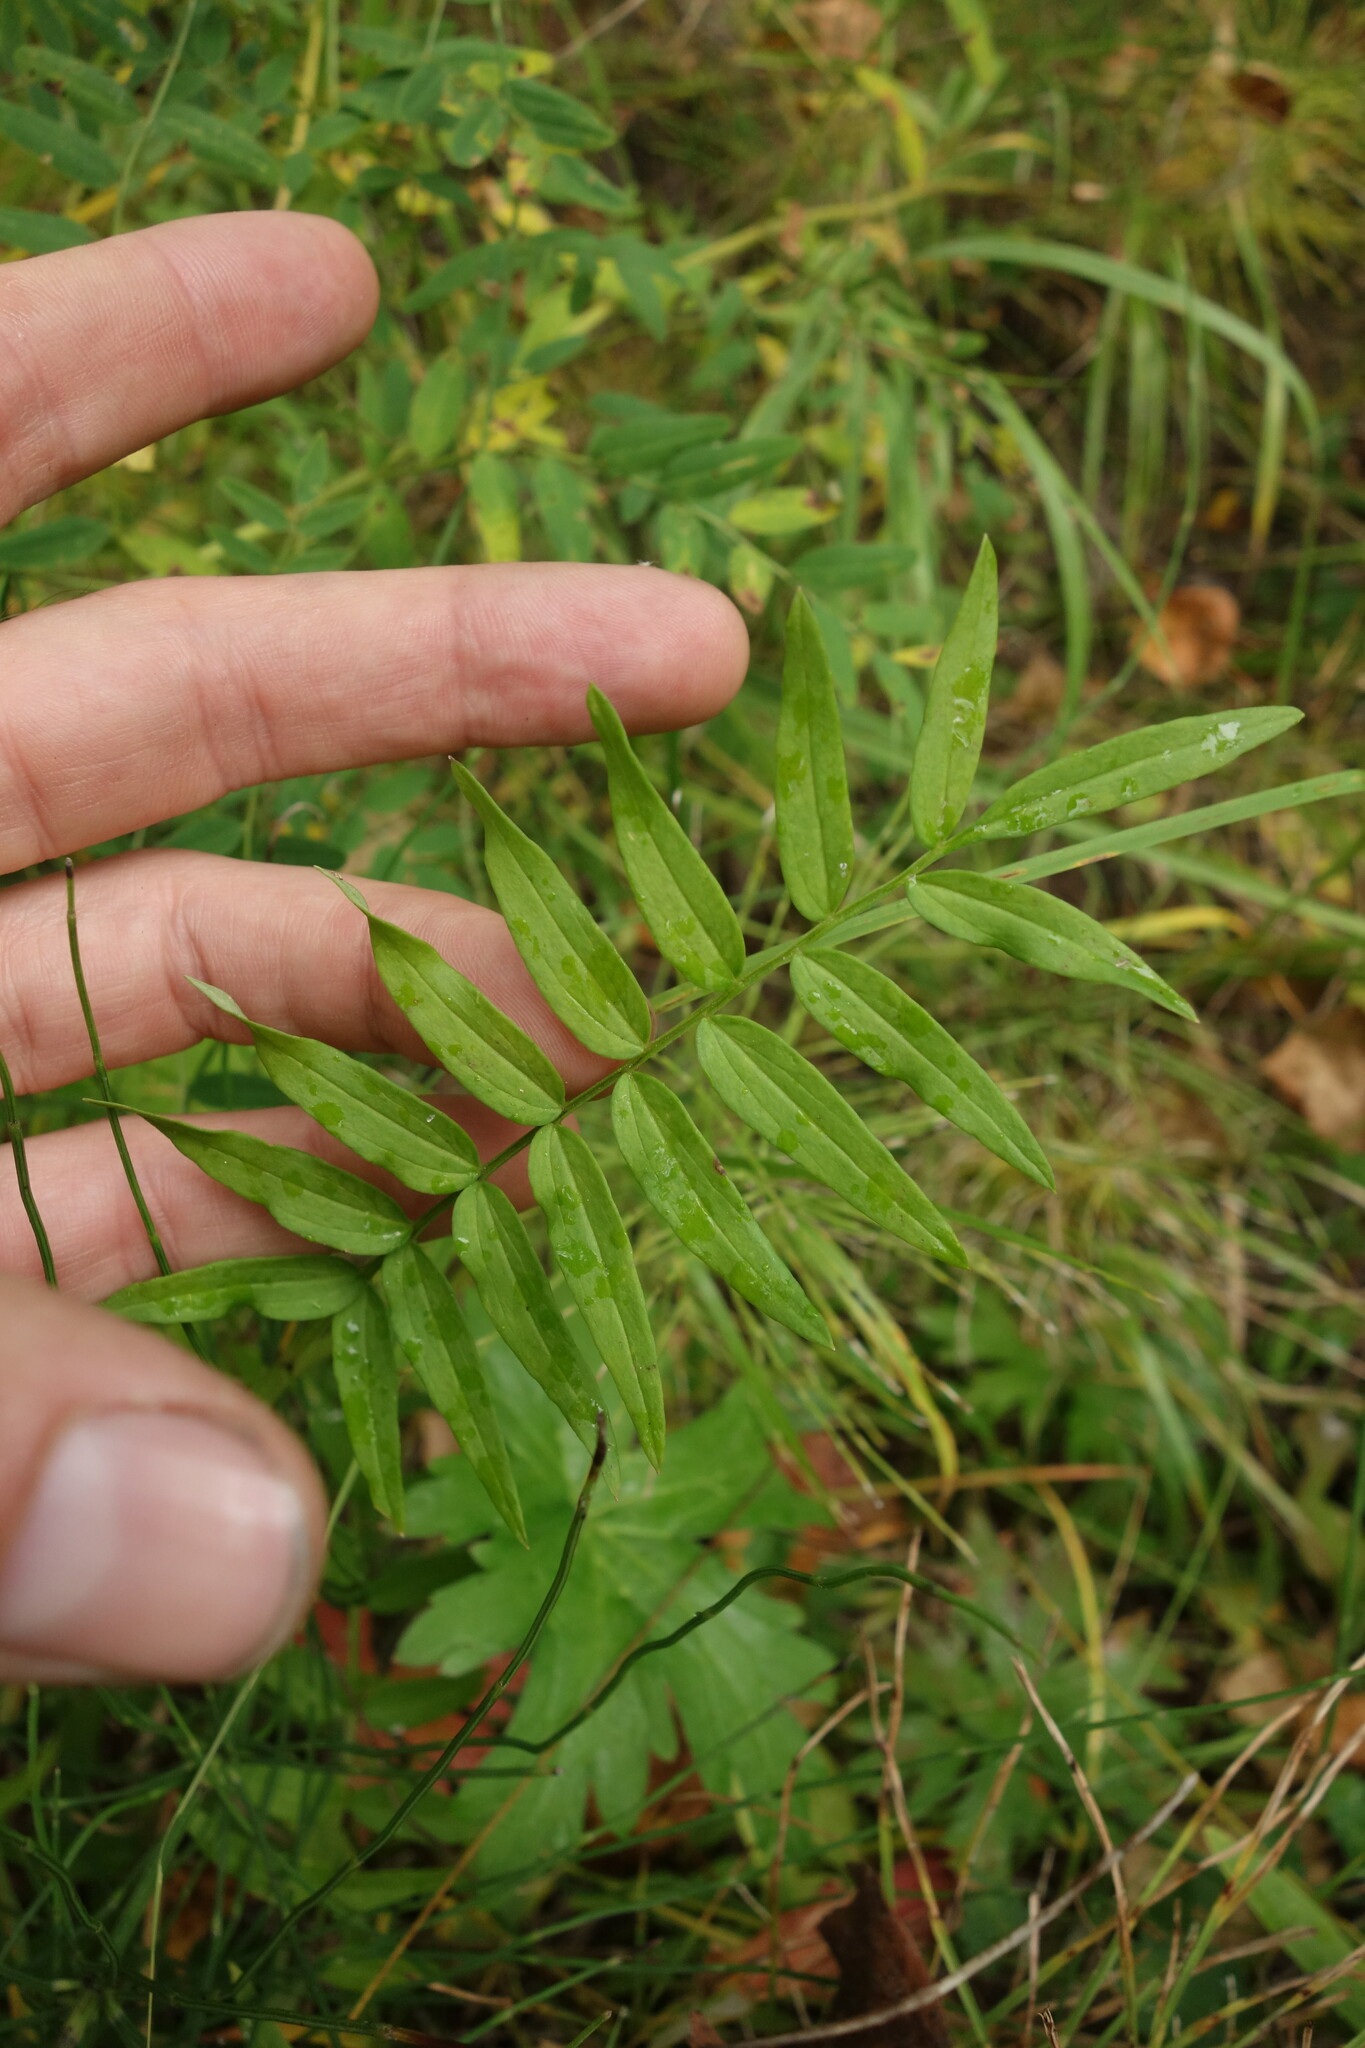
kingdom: Plantae
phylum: Tracheophyta
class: Magnoliopsida
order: Ericales
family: Polemoniaceae
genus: Polemonium
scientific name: Polemonium caeruleum
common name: Jacob's-ladder
